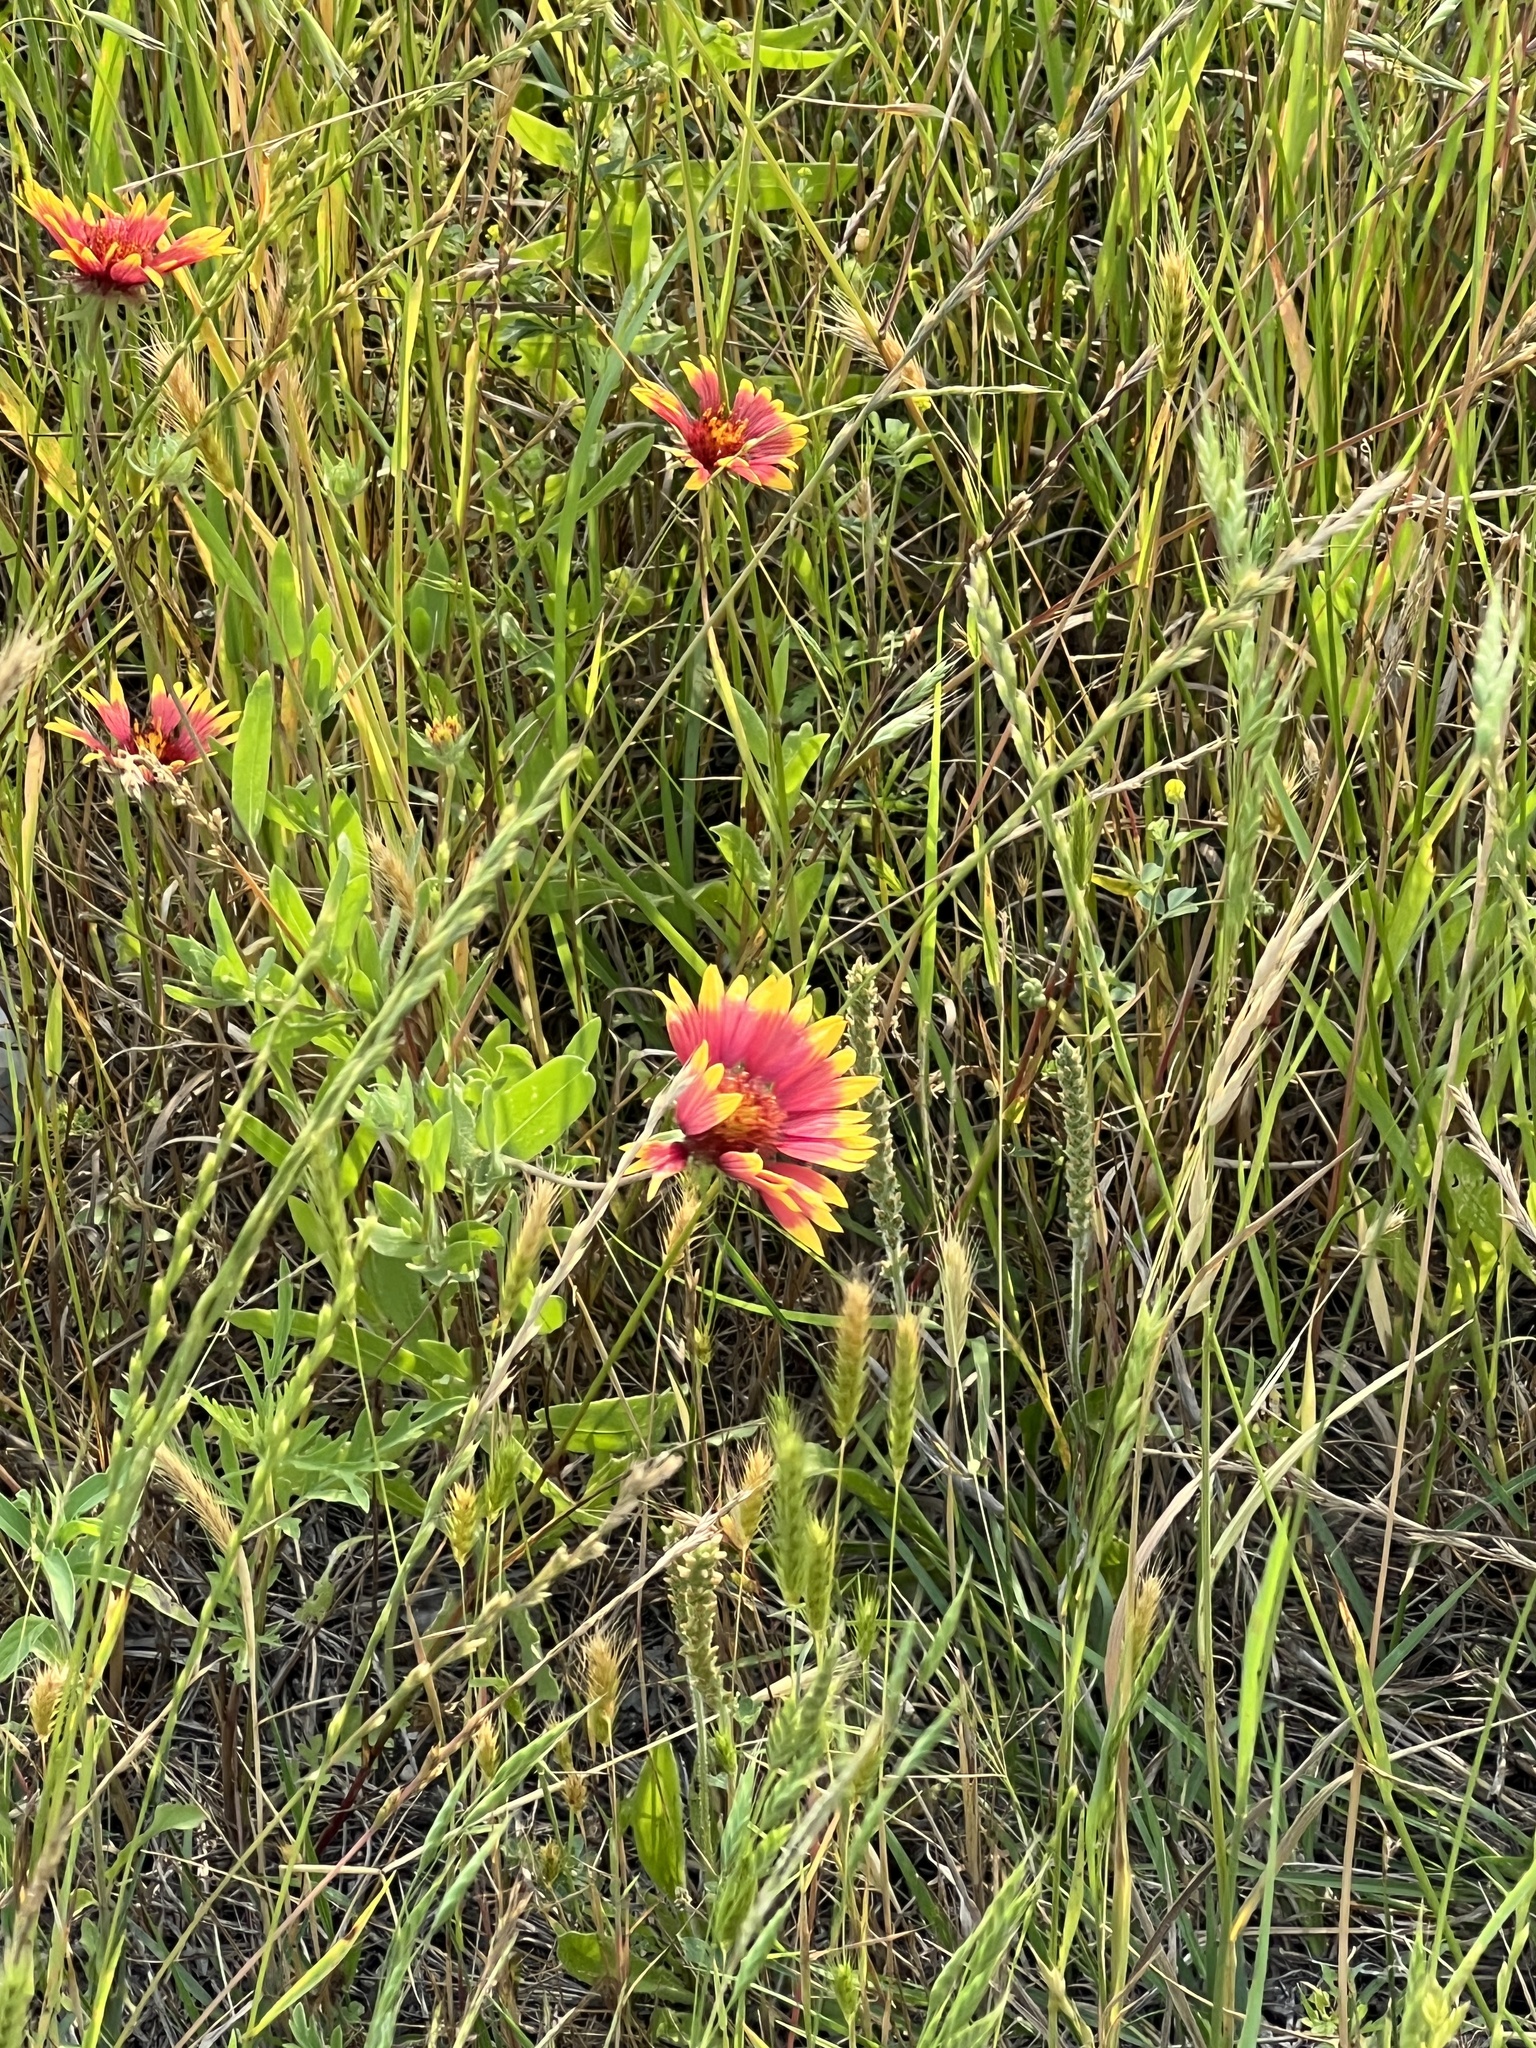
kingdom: Plantae
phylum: Tracheophyta
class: Magnoliopsida
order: Asterales
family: Asteraceae
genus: Gaillardia
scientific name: Gaillardia pulchella
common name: Firewheel
